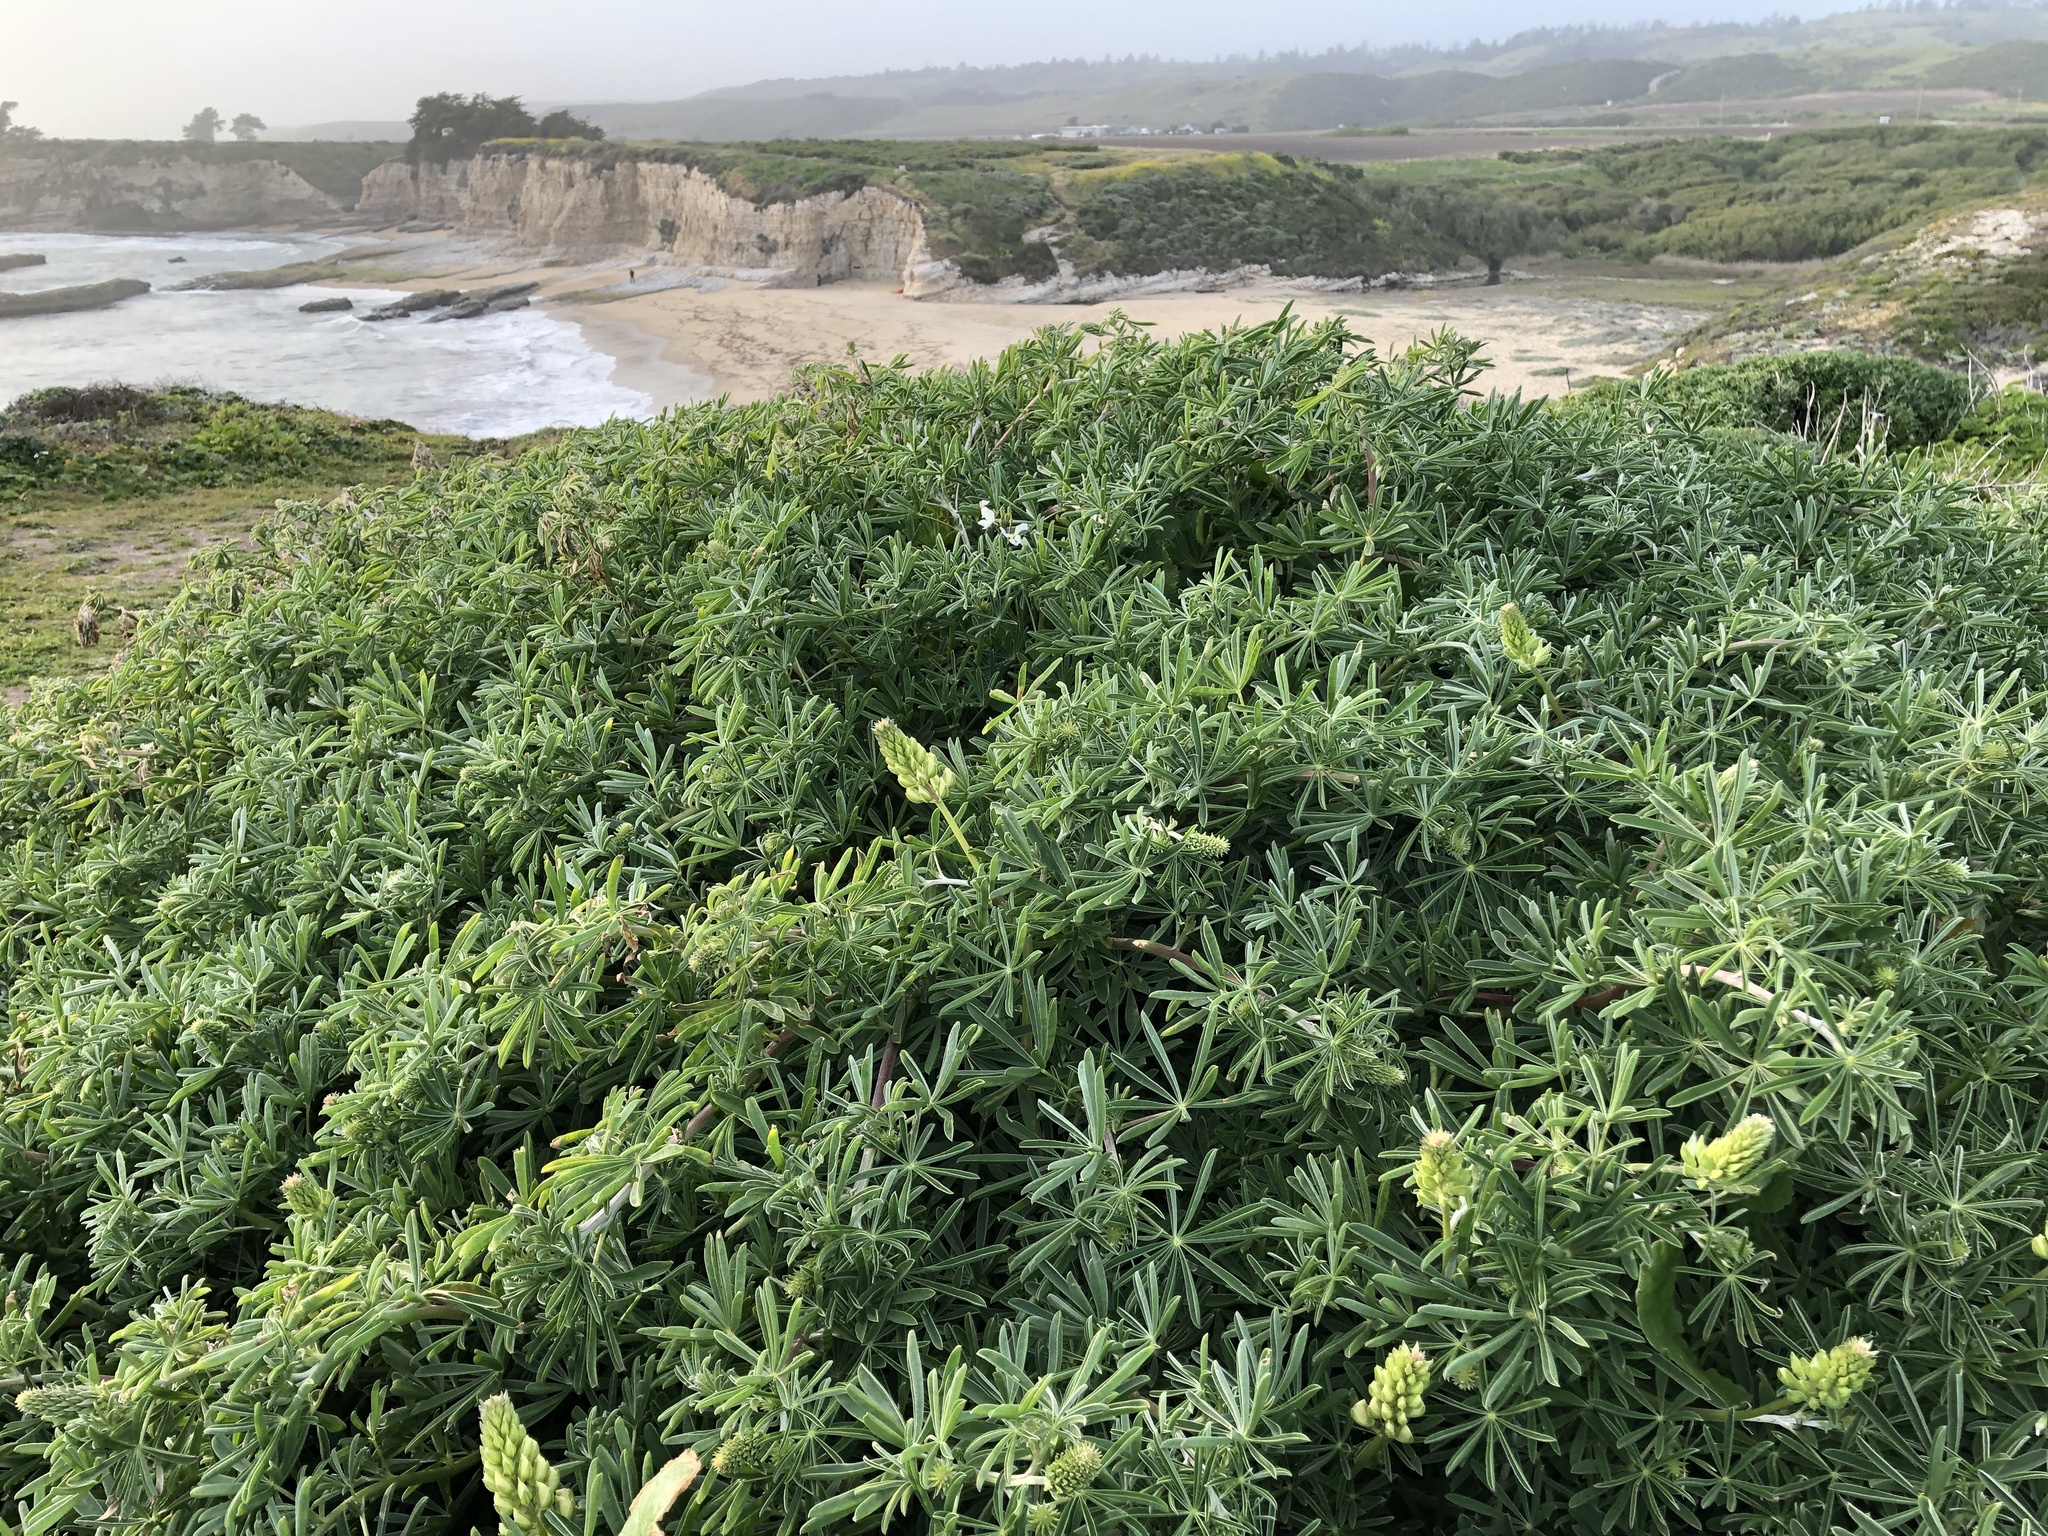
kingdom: Plantae
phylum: Tracheophyta
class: Magnoliopsida
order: Fabales
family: Fabaceae
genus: Lupinus
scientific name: Lupinus arboreus
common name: Yellow bush lupine
